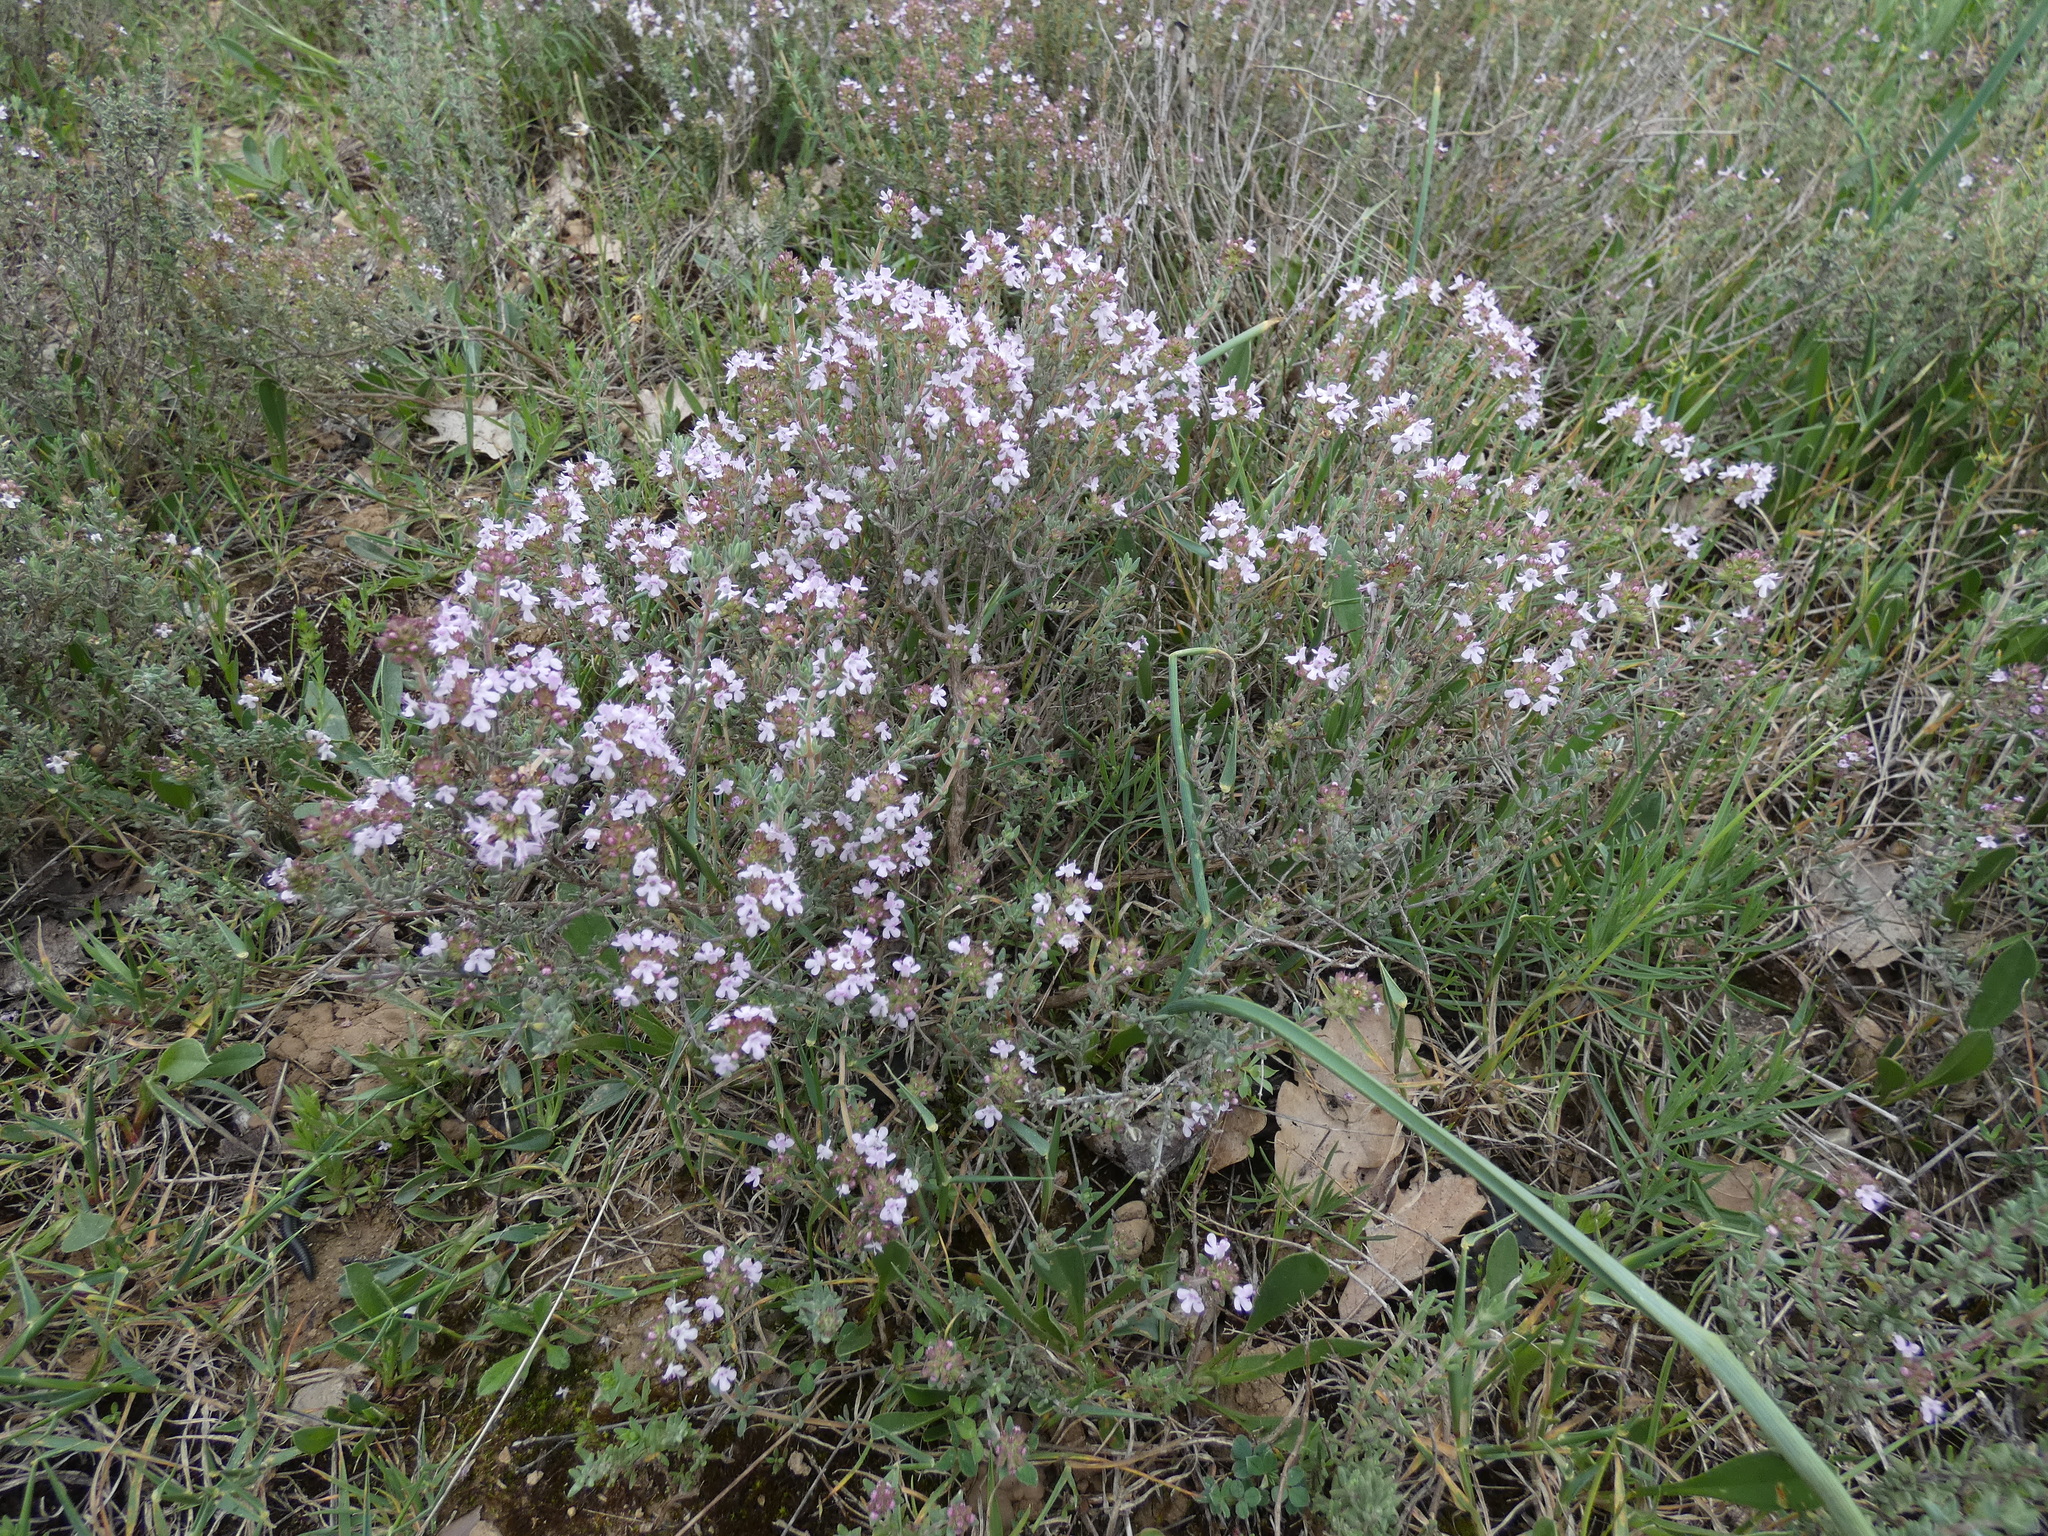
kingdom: Plantae
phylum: Tracheophyta
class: Magnoliopsida
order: Lamiales
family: Lamiaceae
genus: Thymus
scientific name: Thymus vulgaris
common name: Garden thyme
